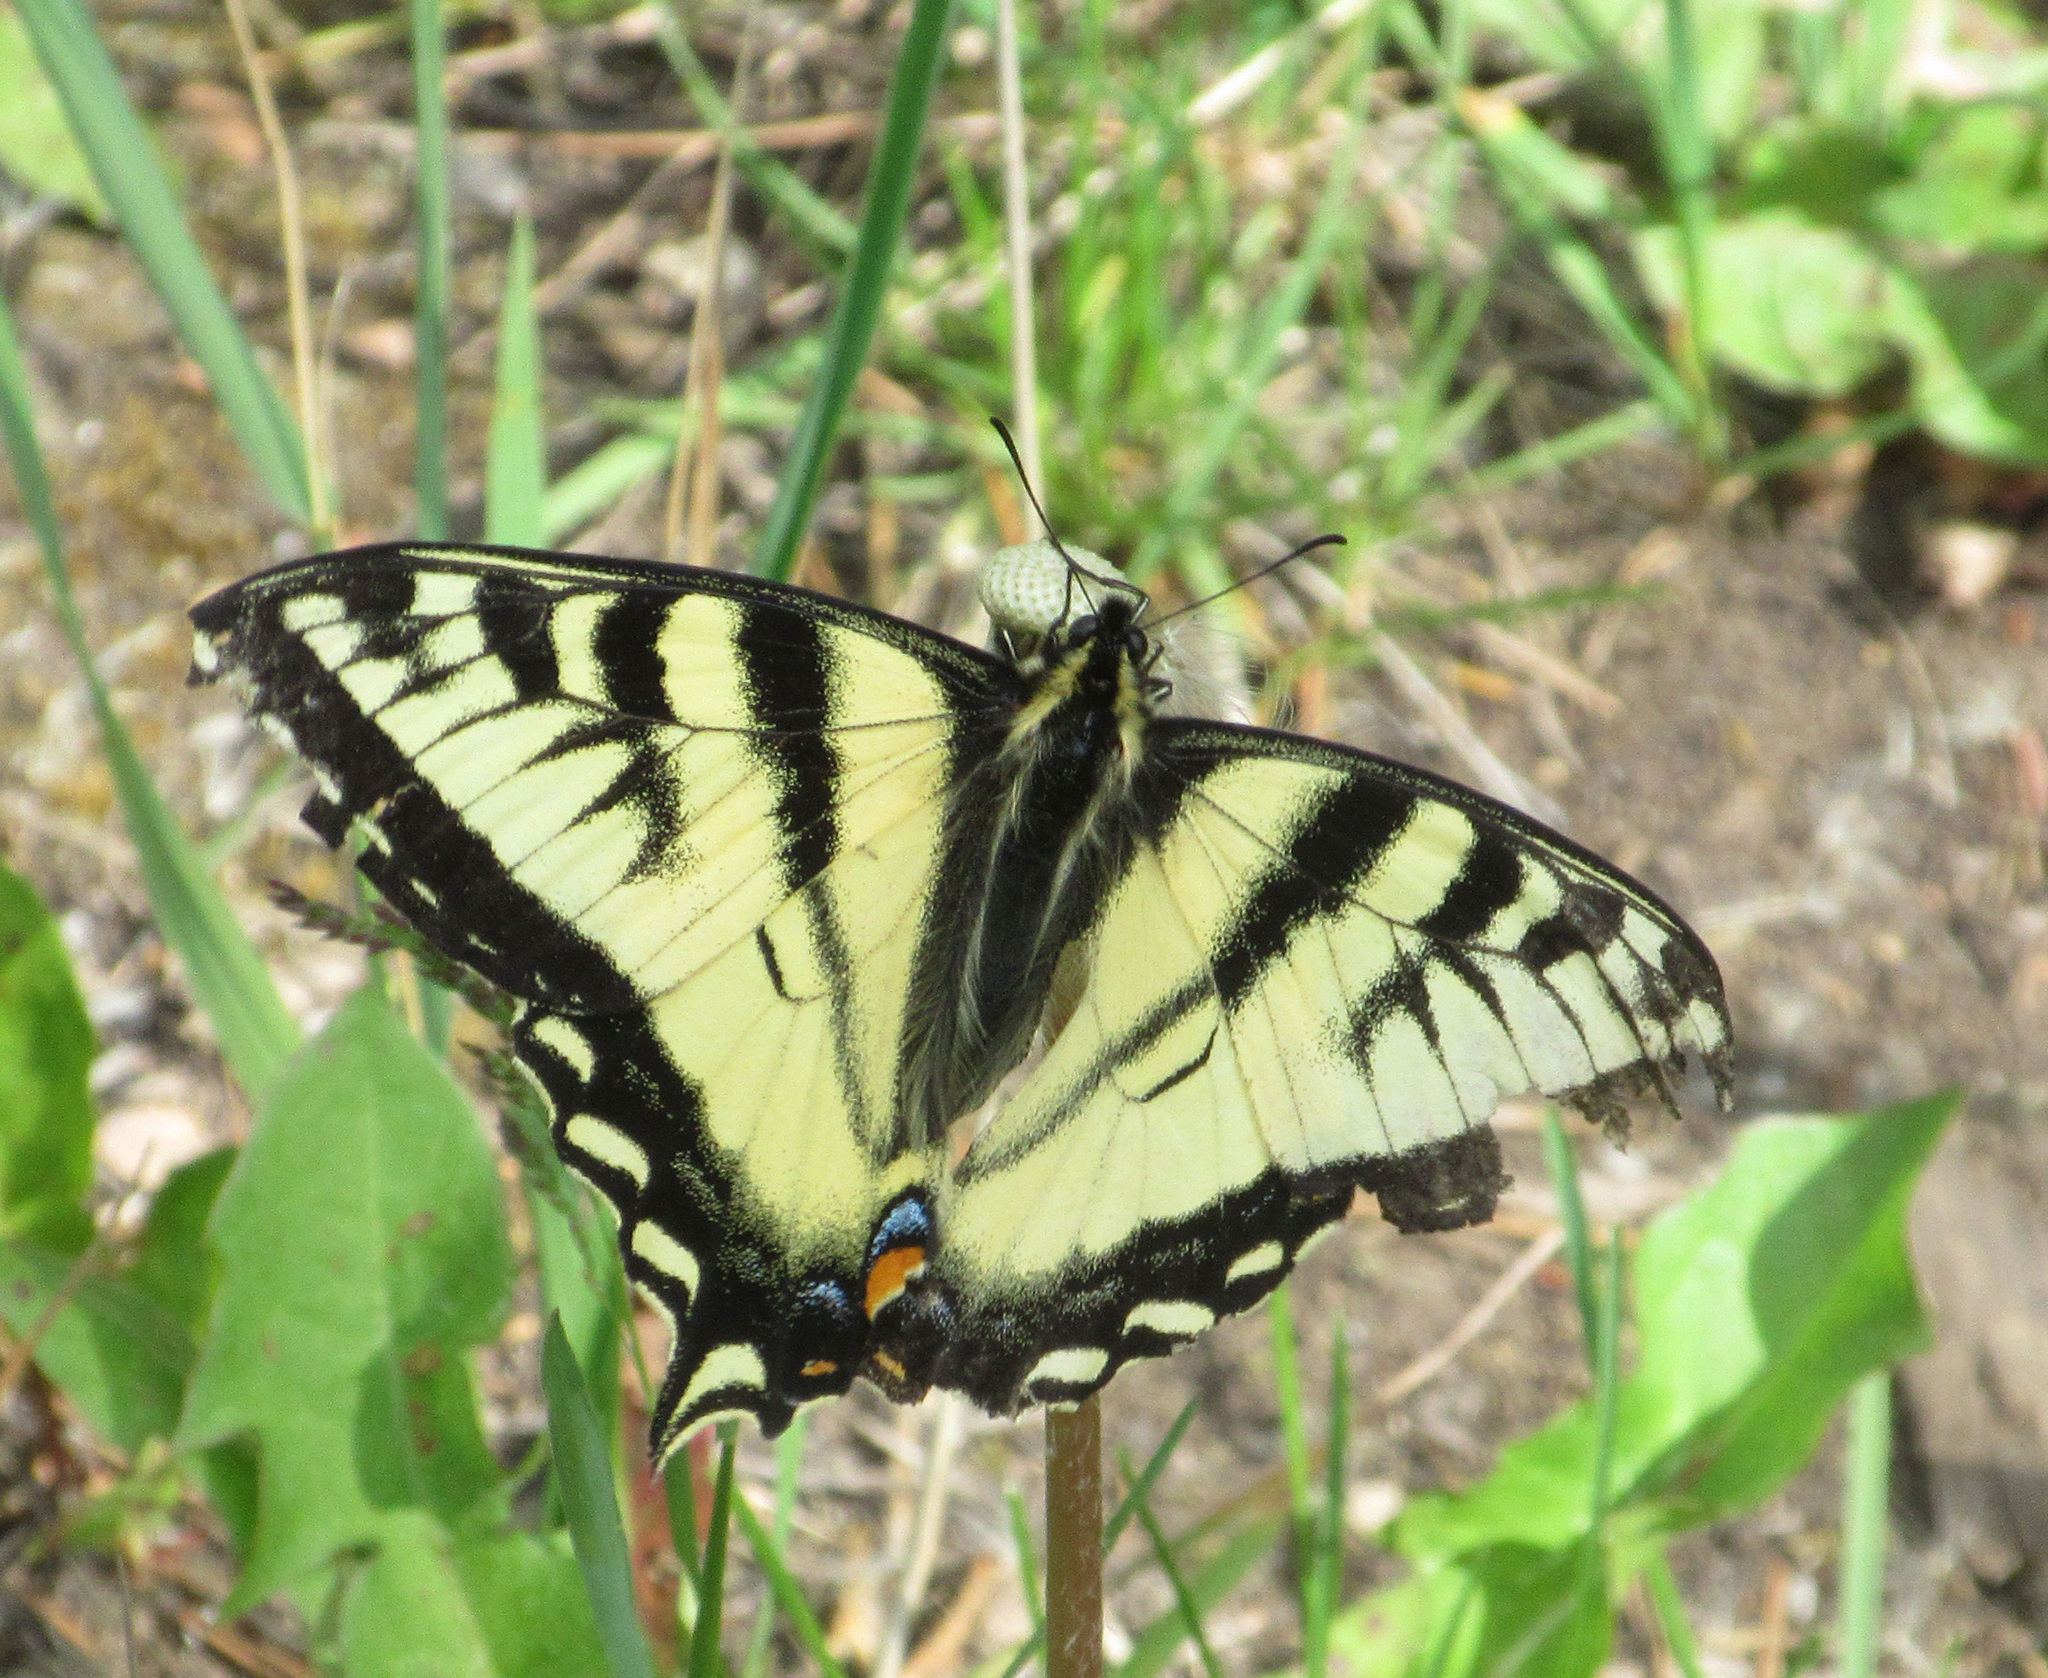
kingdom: Animalia
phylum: Arthropoda
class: Insecta
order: Lepidoptera
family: Papilionidae
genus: Papilio
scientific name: Papilio canadensis
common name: Canadian tiger swallowtail
